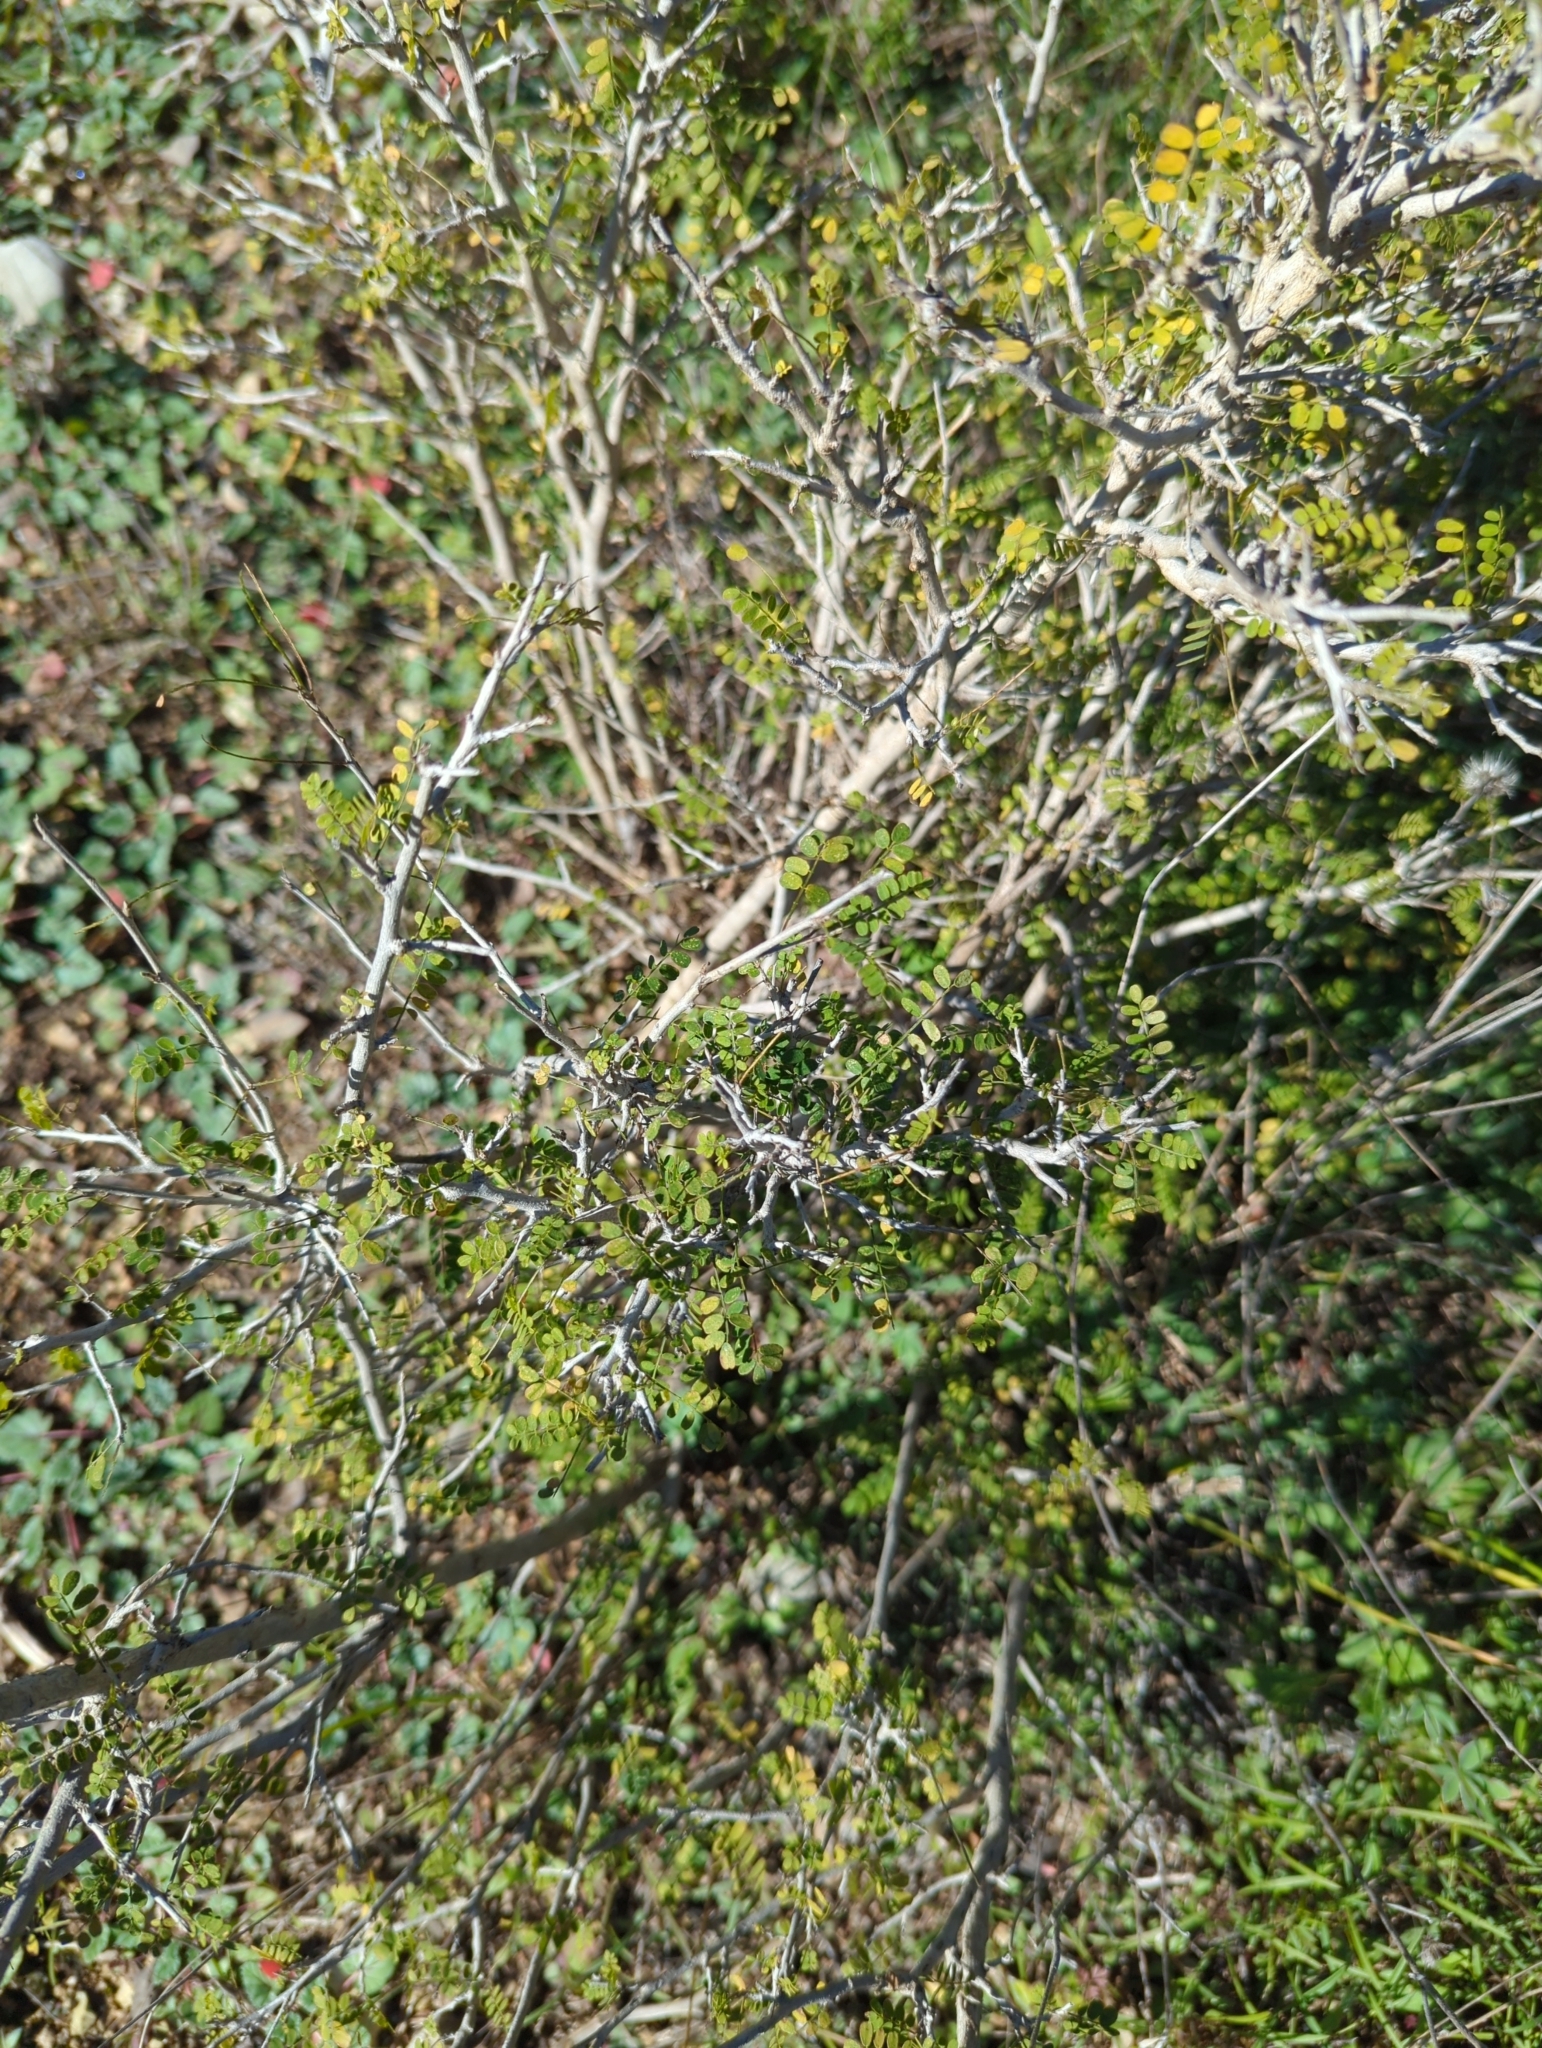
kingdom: Plantae
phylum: Tracheophyta
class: Magnoliopsida
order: Fabales
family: Fabaceae
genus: Eysenhardtia
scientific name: Eysenhardtia texana
